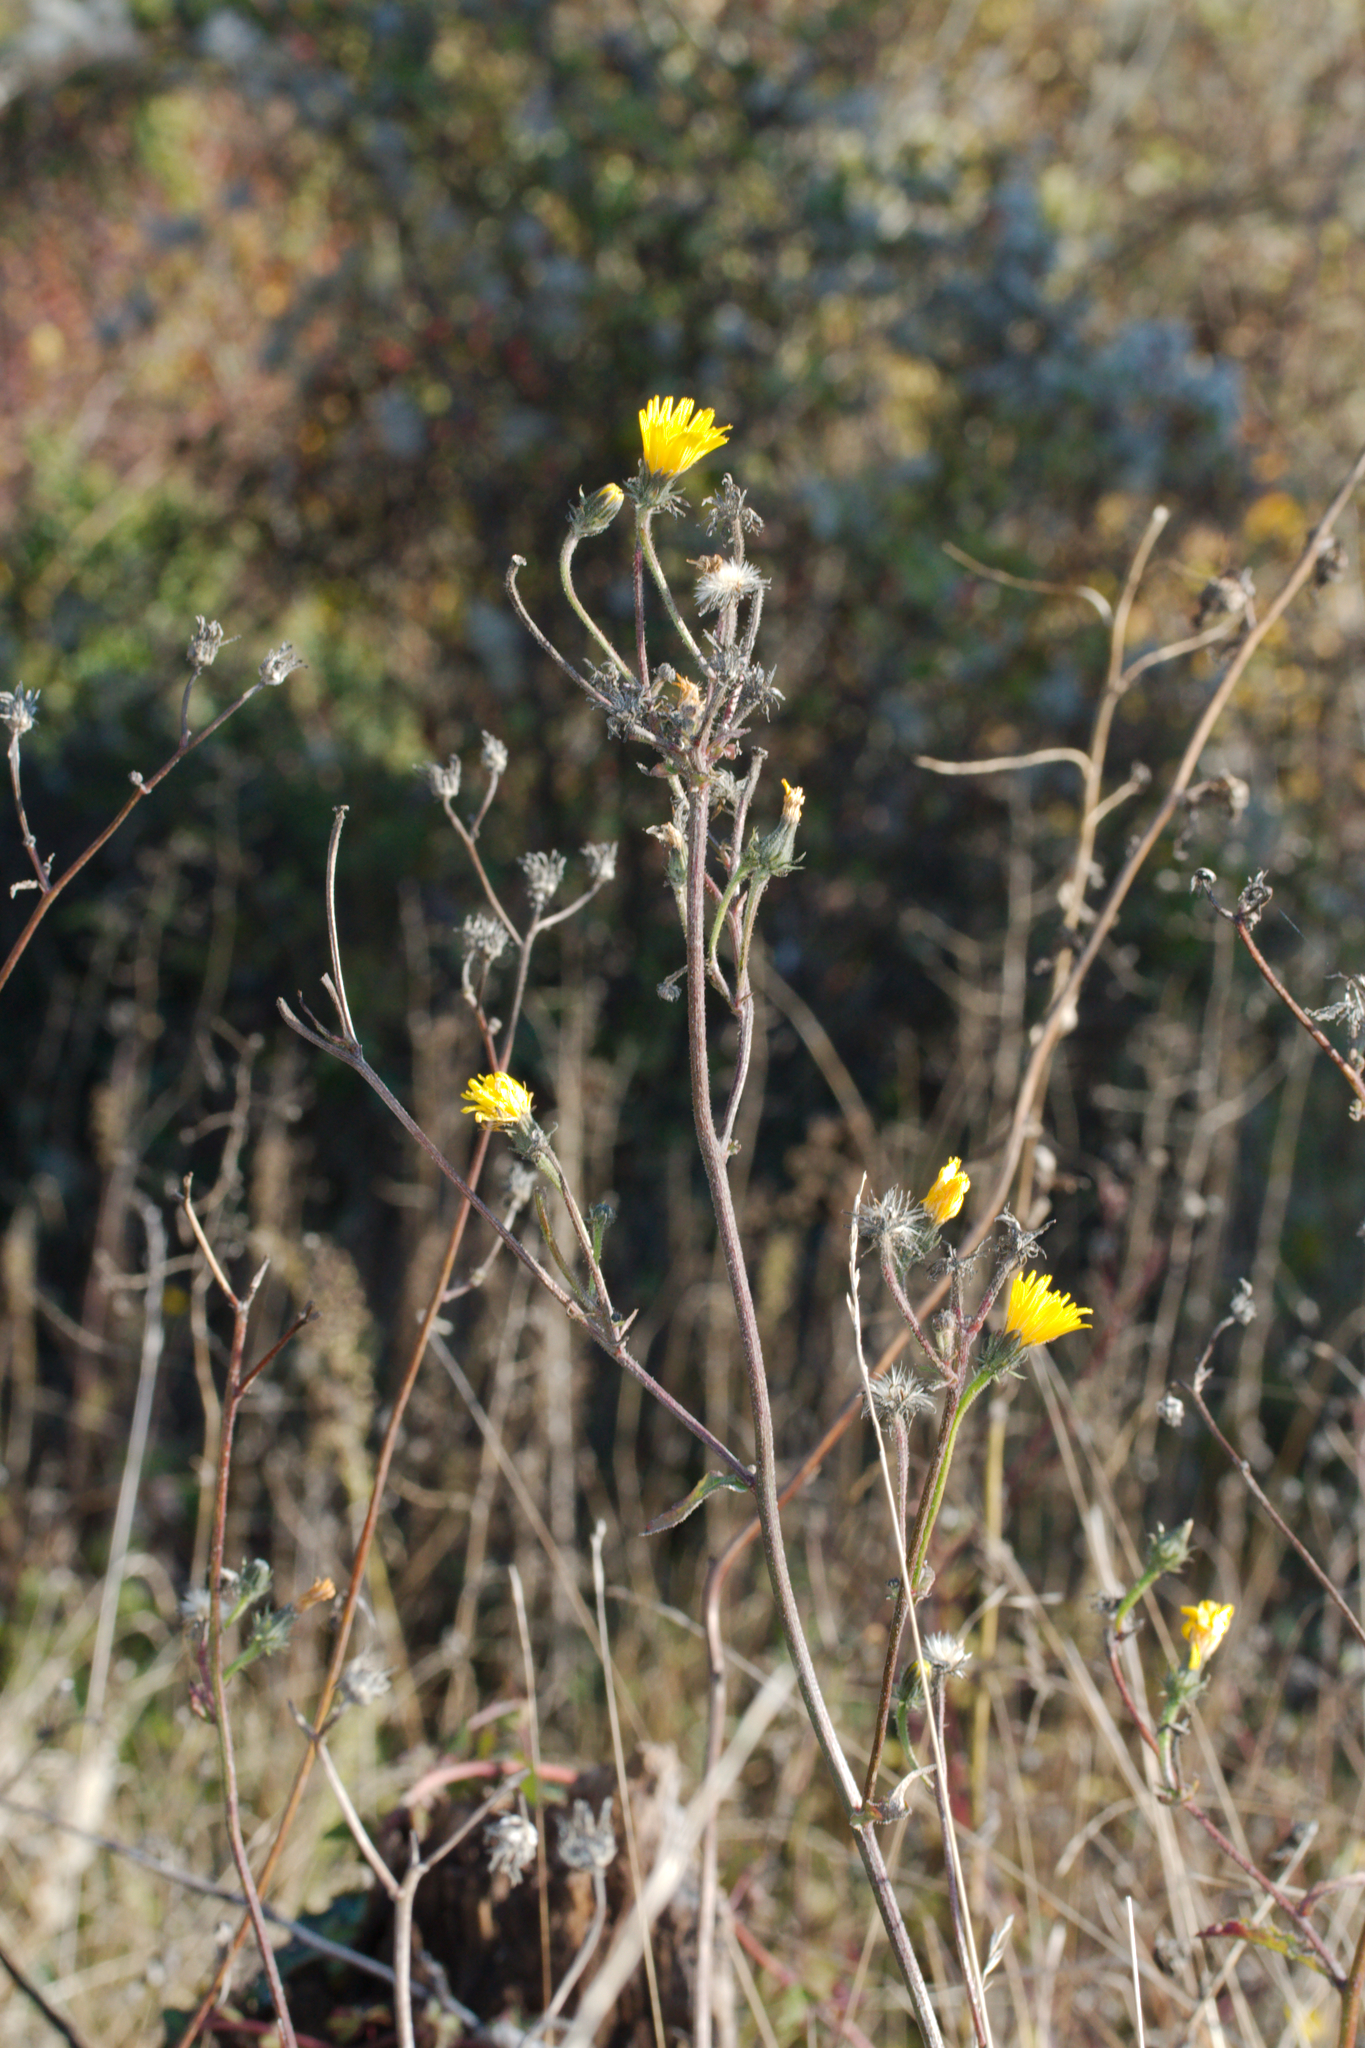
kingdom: Plantae
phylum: Tracheophyta
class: Magnoliopsida
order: Asterales
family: Asteraceae
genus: Picris
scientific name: Picris hieracioides
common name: Hawkweed oxtongue
